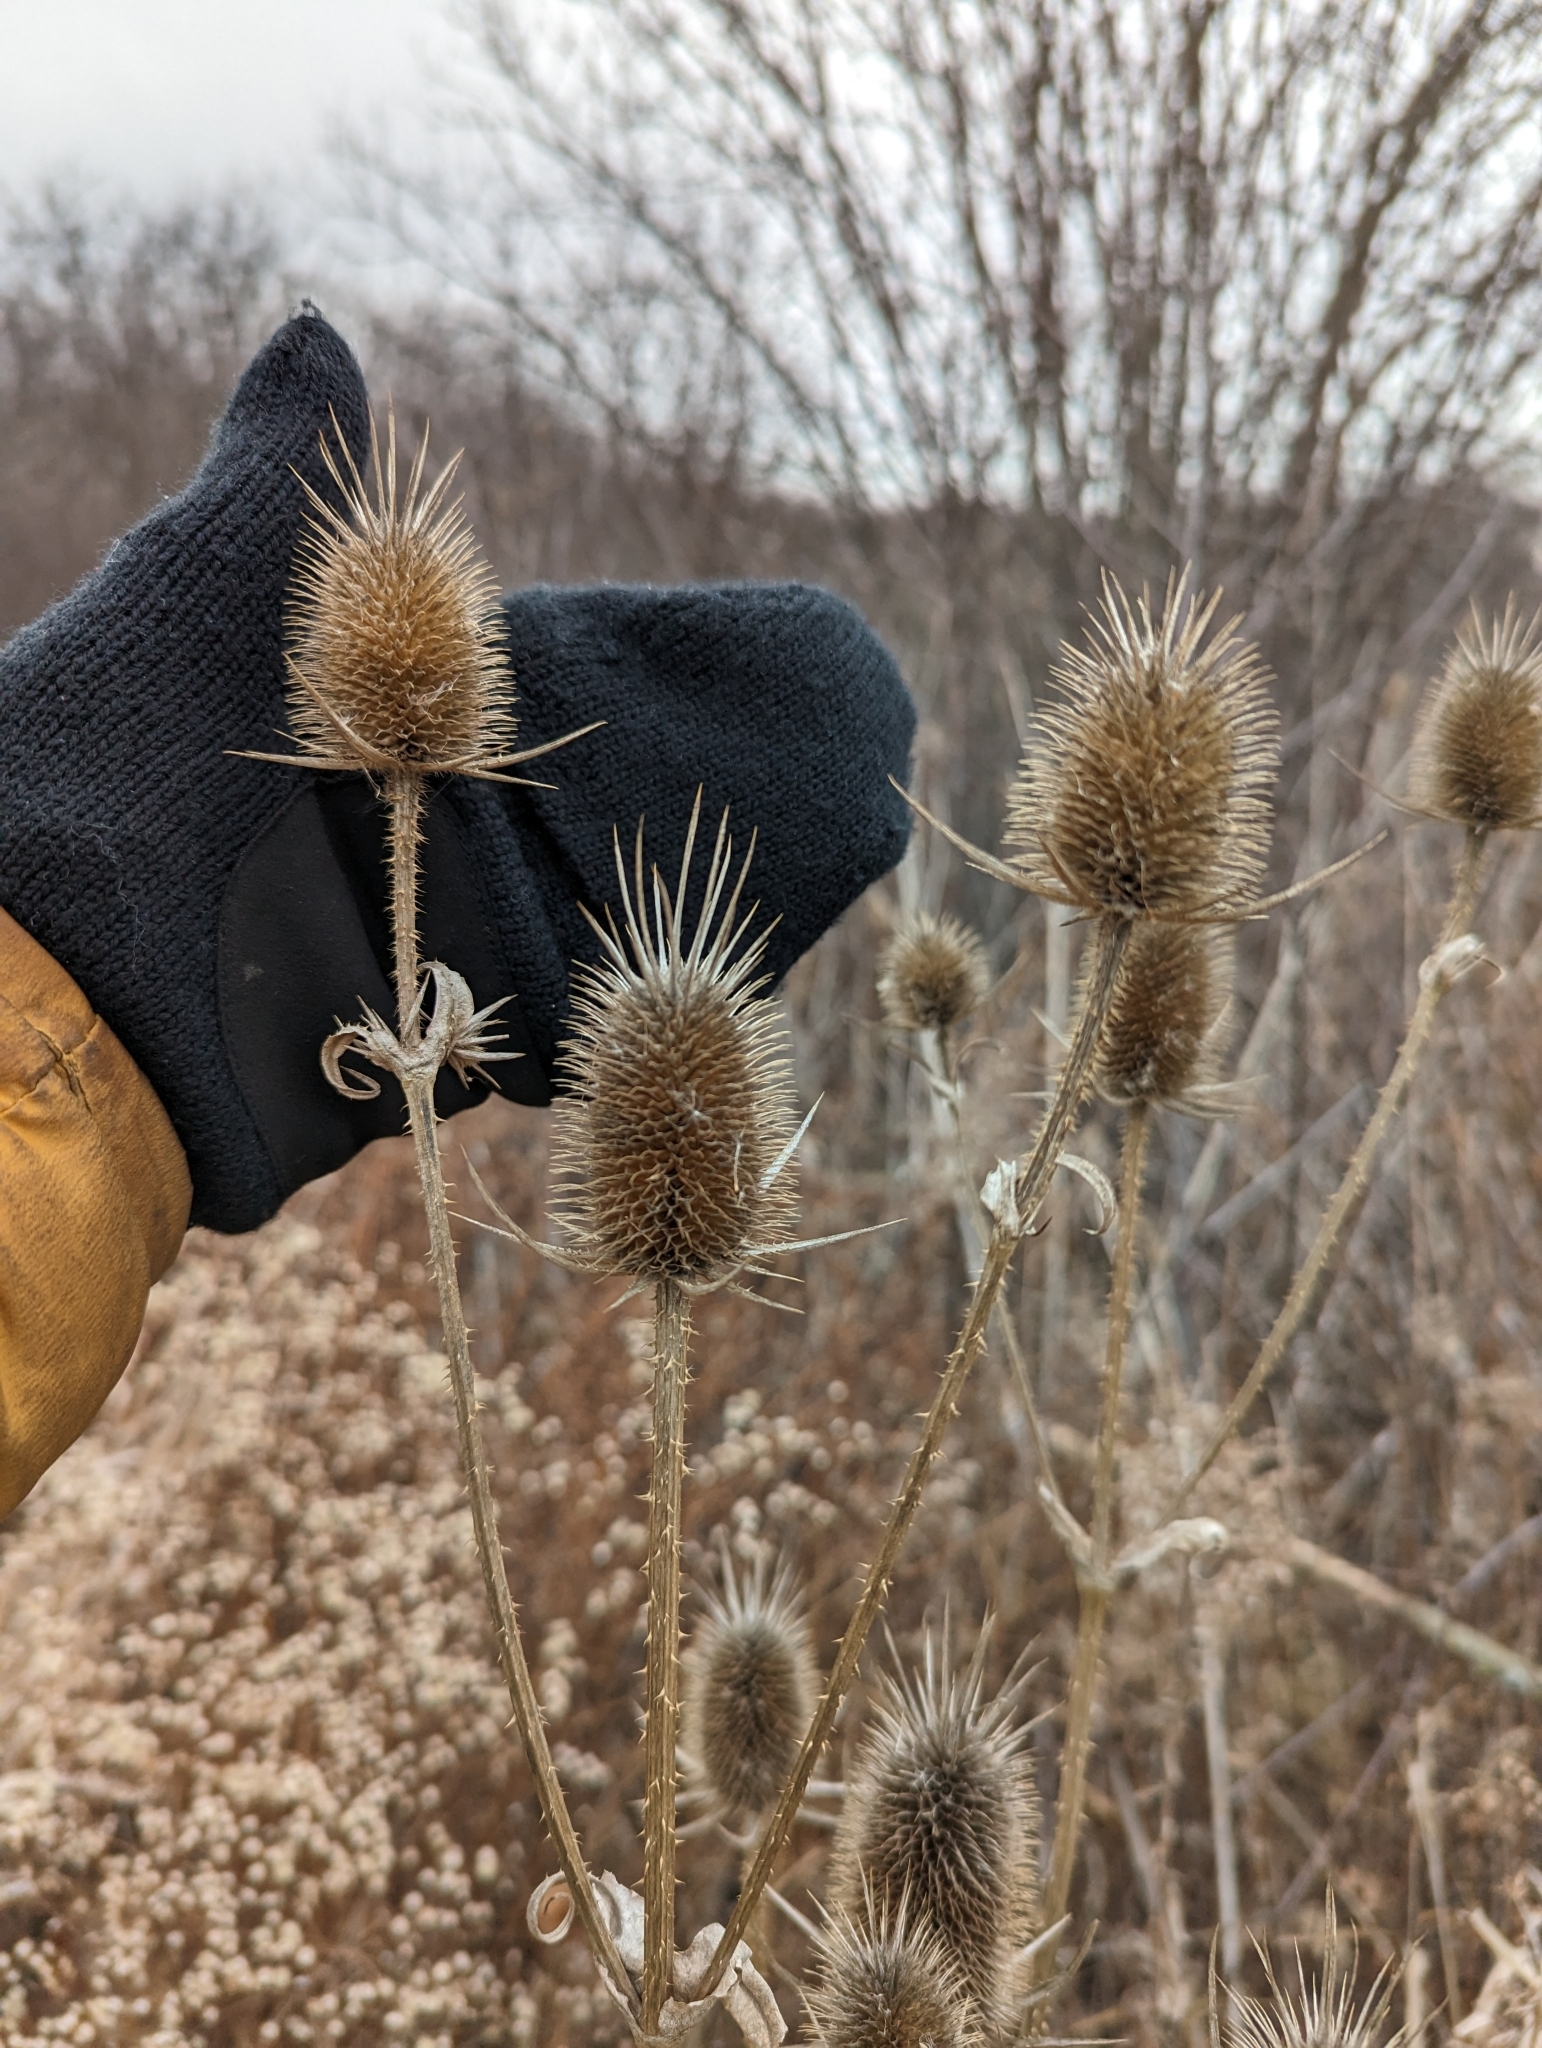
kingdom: Plantae
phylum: Tracheophyta
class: Magnoliopsida
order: Dipsacales
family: Caprifoliaceae
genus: Dipsacus
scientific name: Dipsacus laciniatus
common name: Cut-leaved teasel
